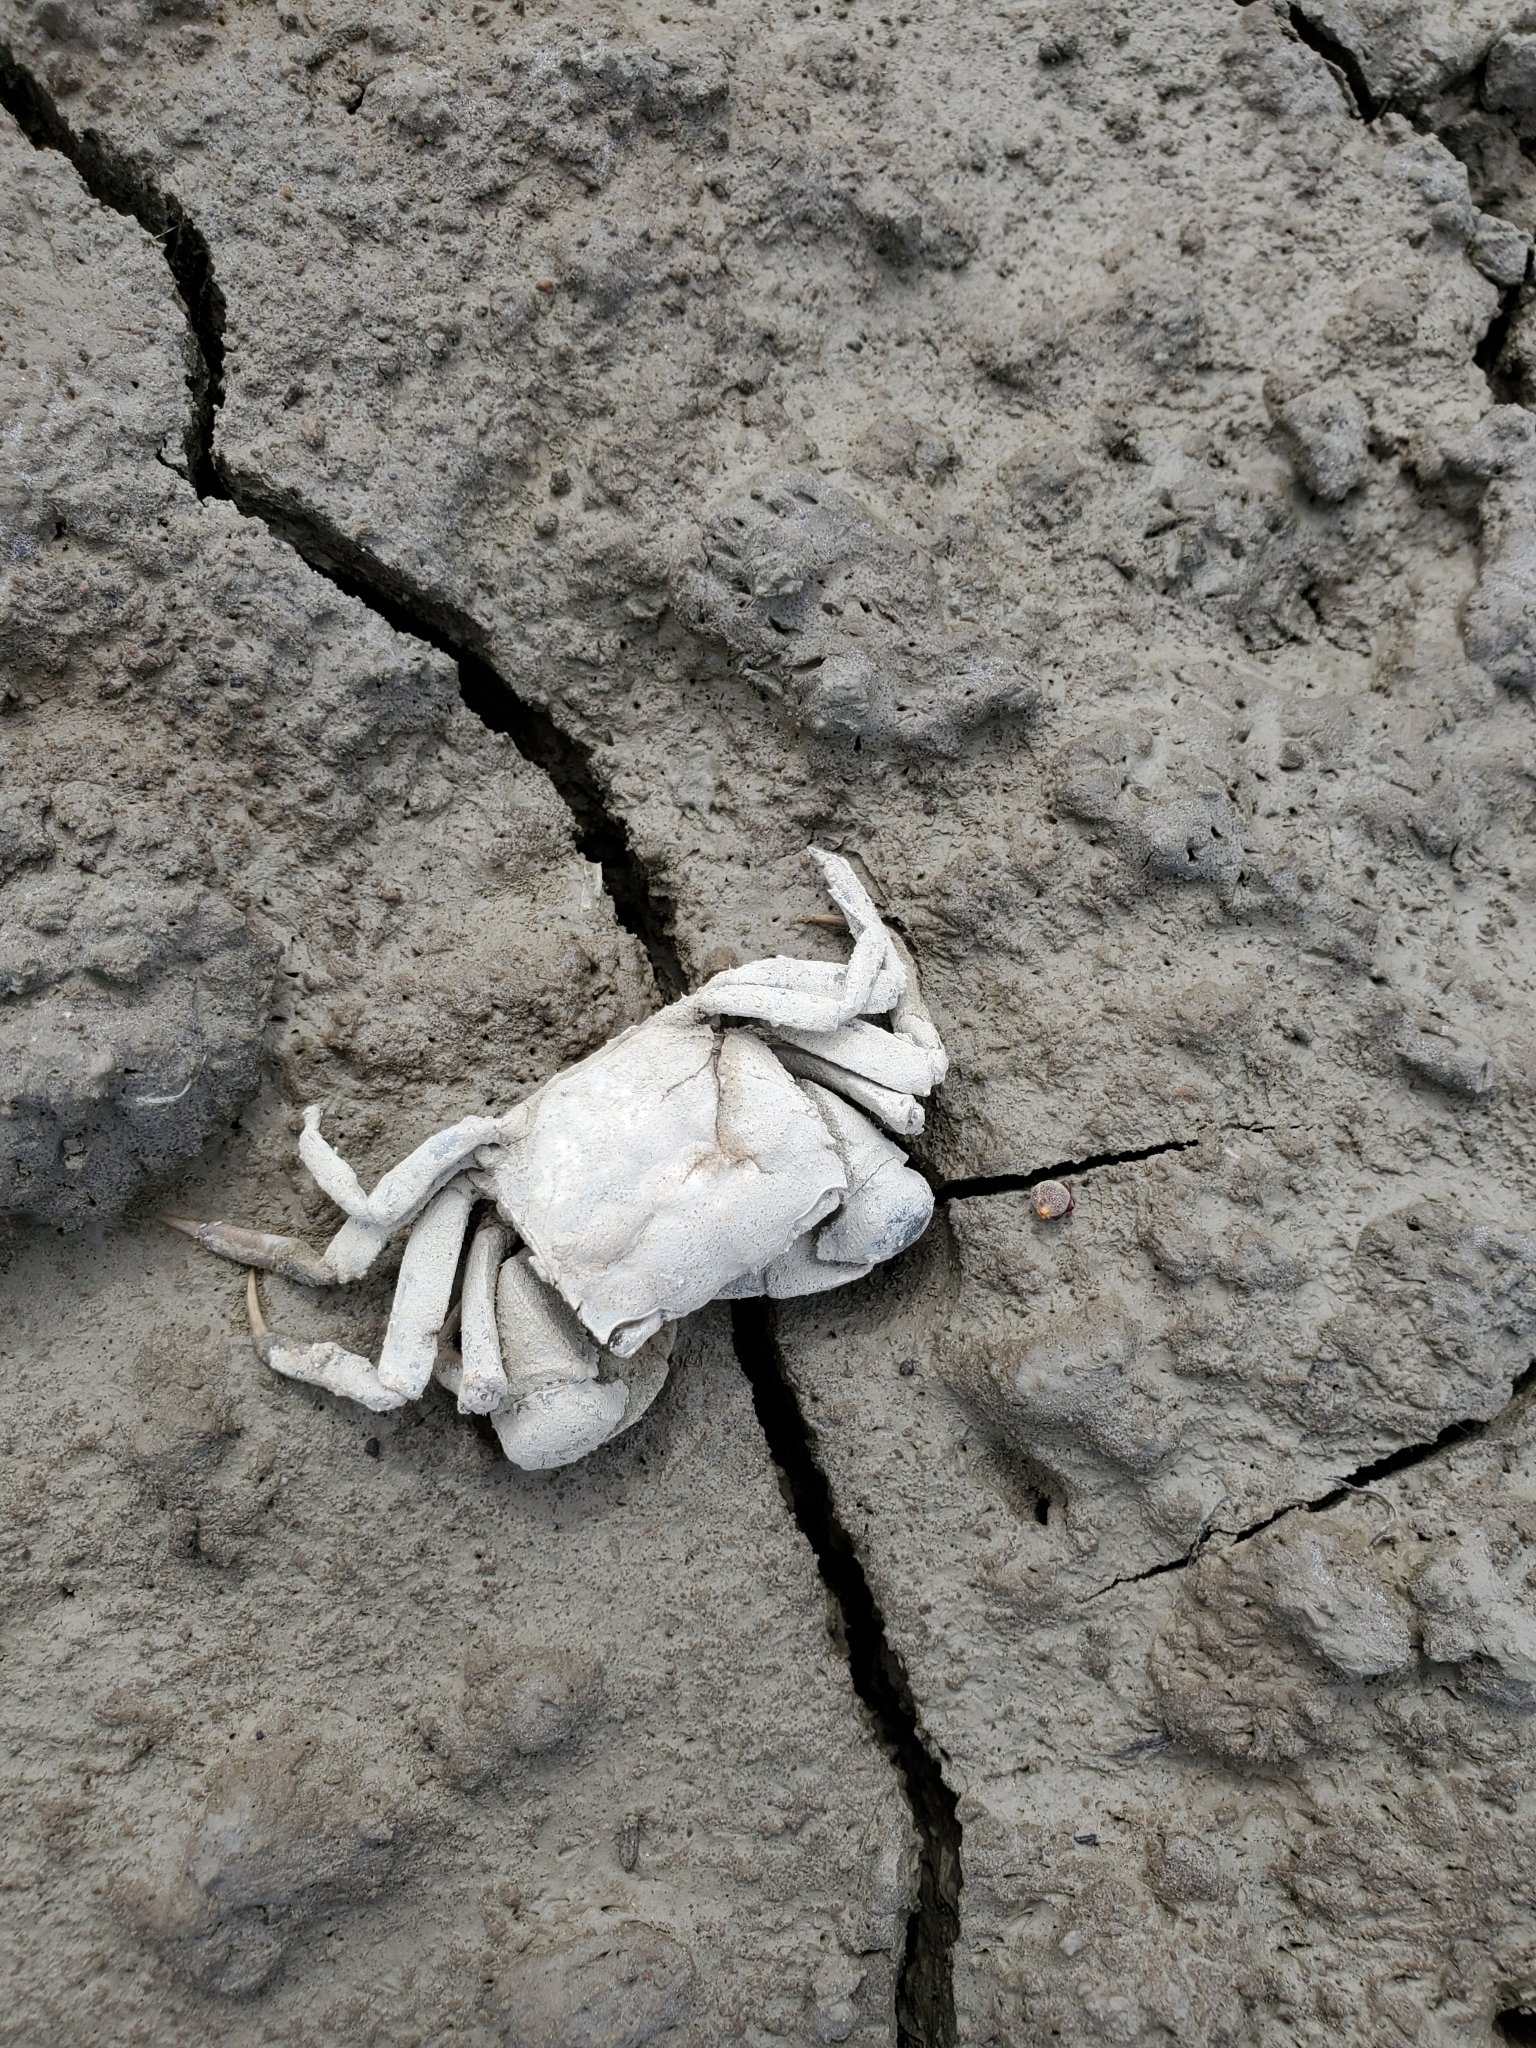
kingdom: Animalia
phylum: Arthropoda
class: Malacostraca
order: Decapoda
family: Varunidae
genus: Austrohelice
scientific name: Austrohelice crassa
